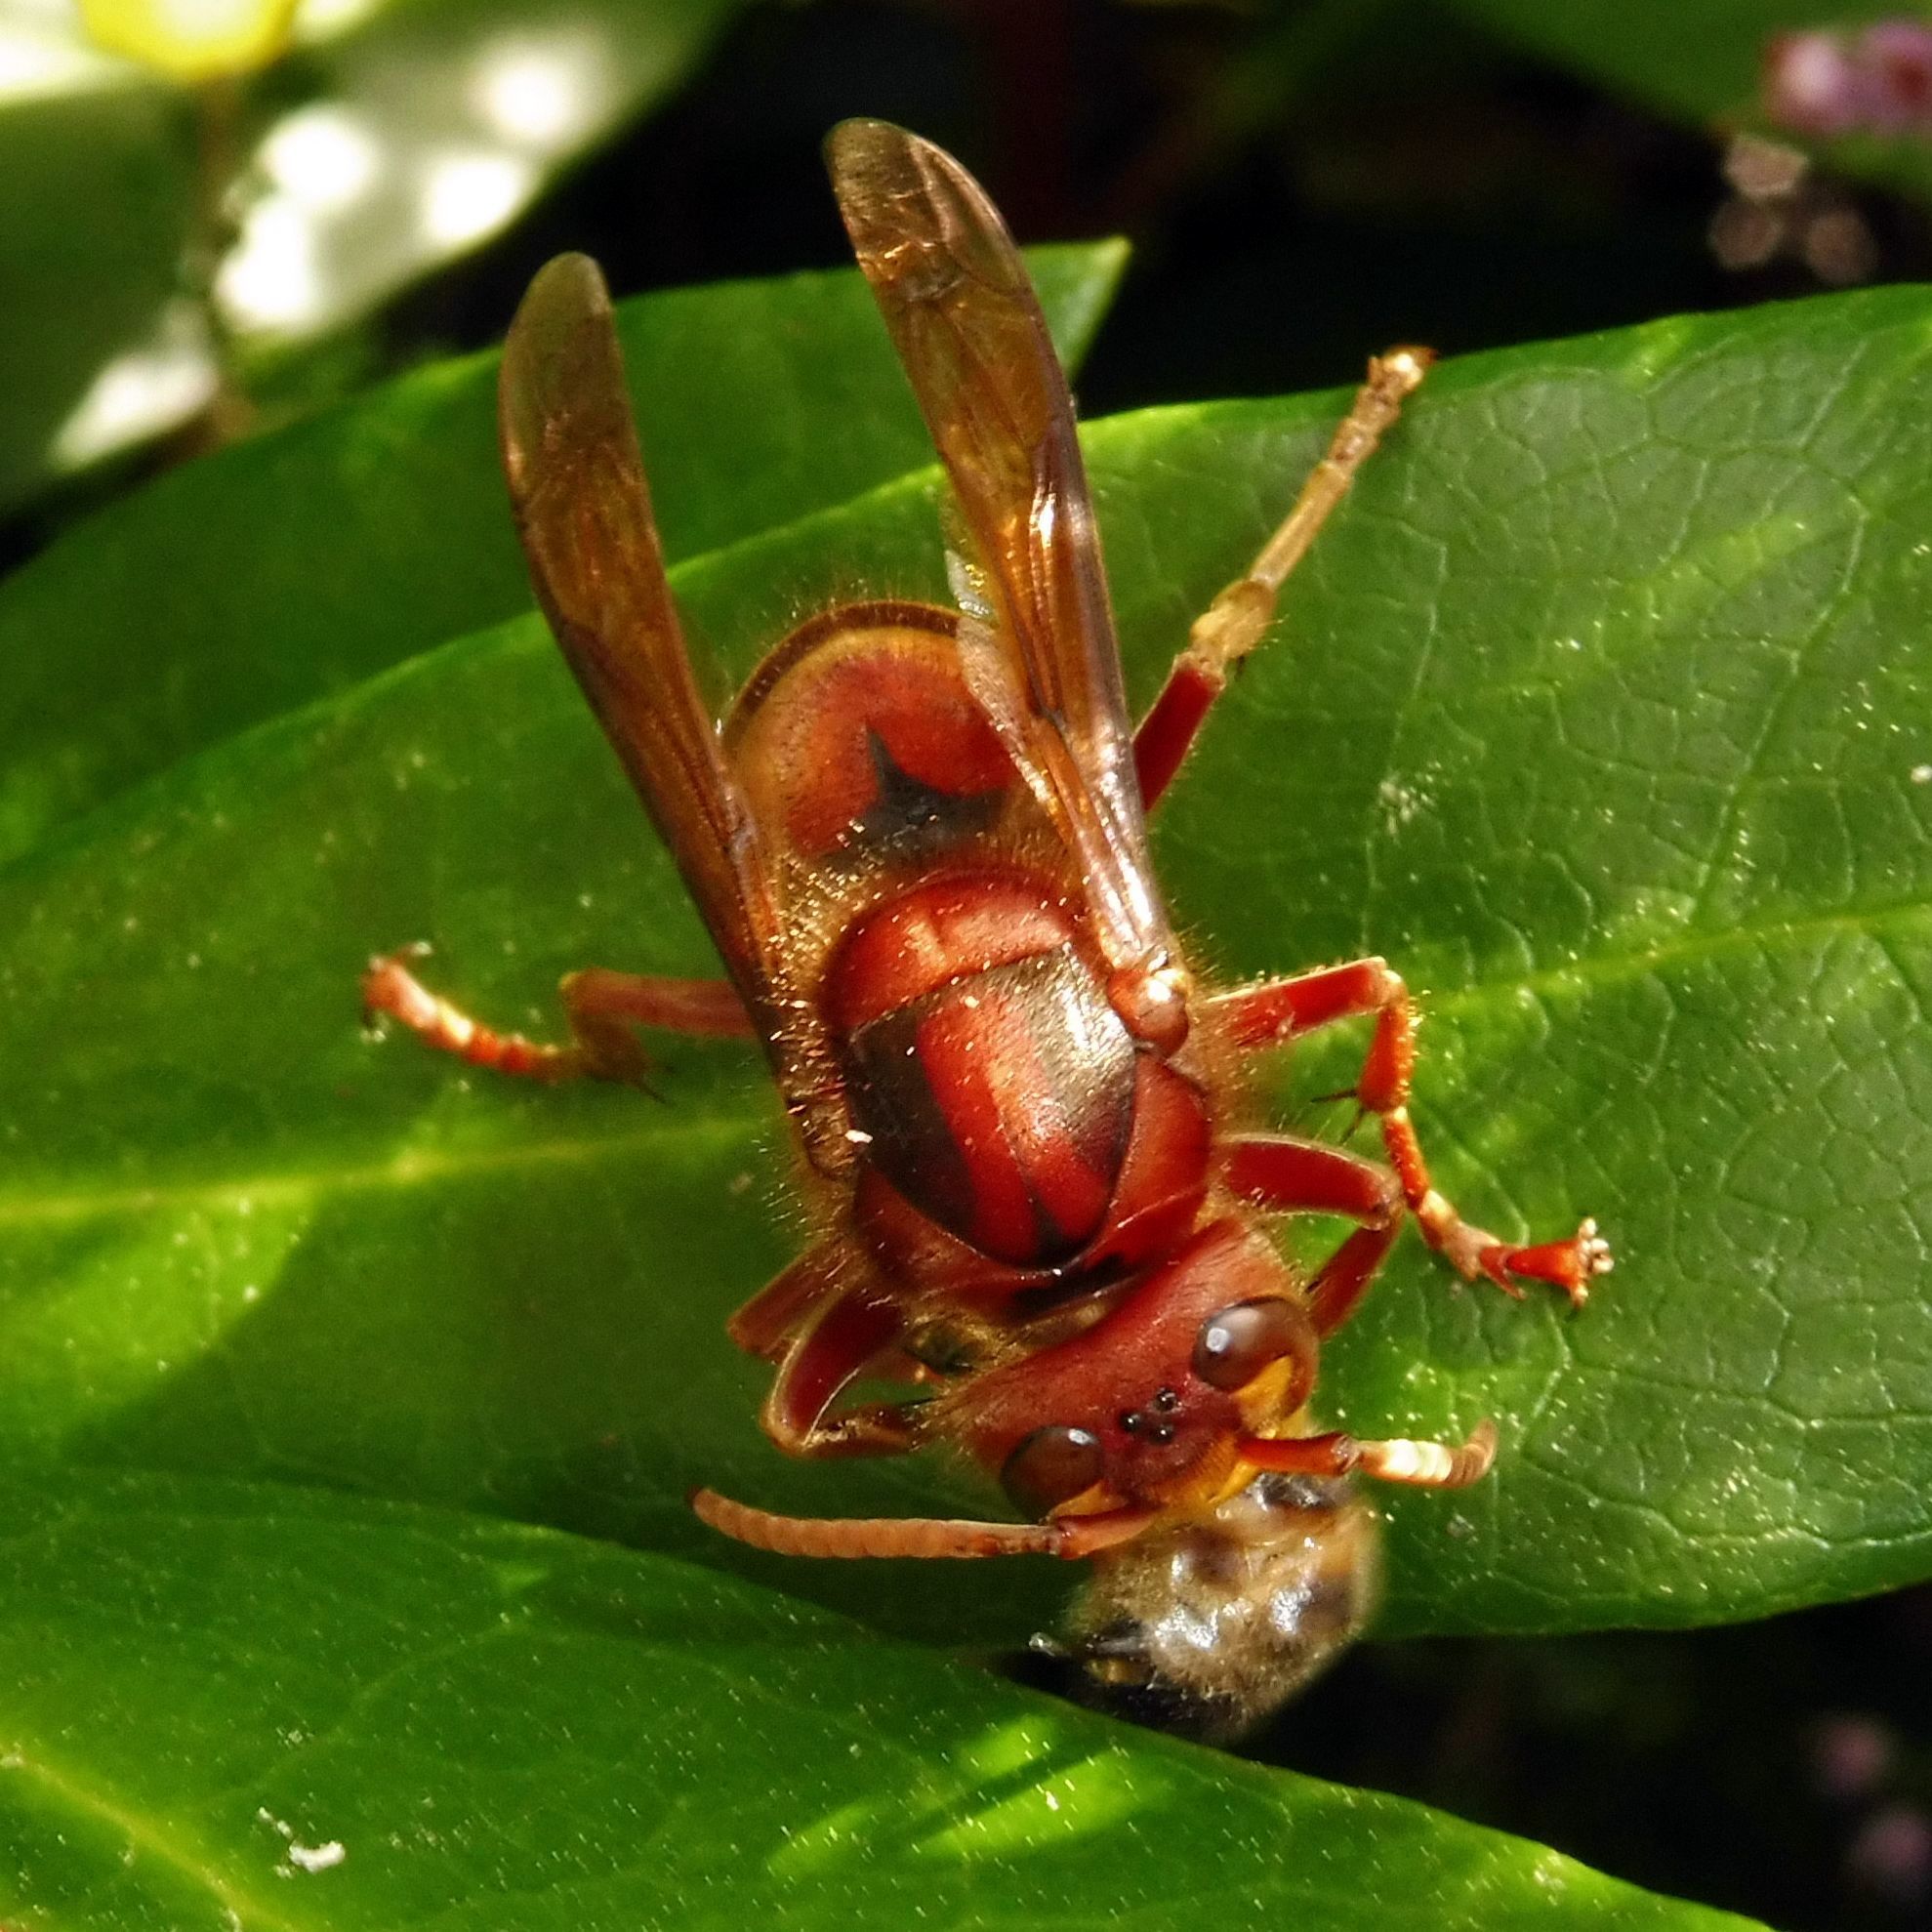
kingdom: Animalia
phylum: Arthropoda
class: Insecta
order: Hymenoptera
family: Vespidae
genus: Vespa
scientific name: Vespa crabro
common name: Hornet
